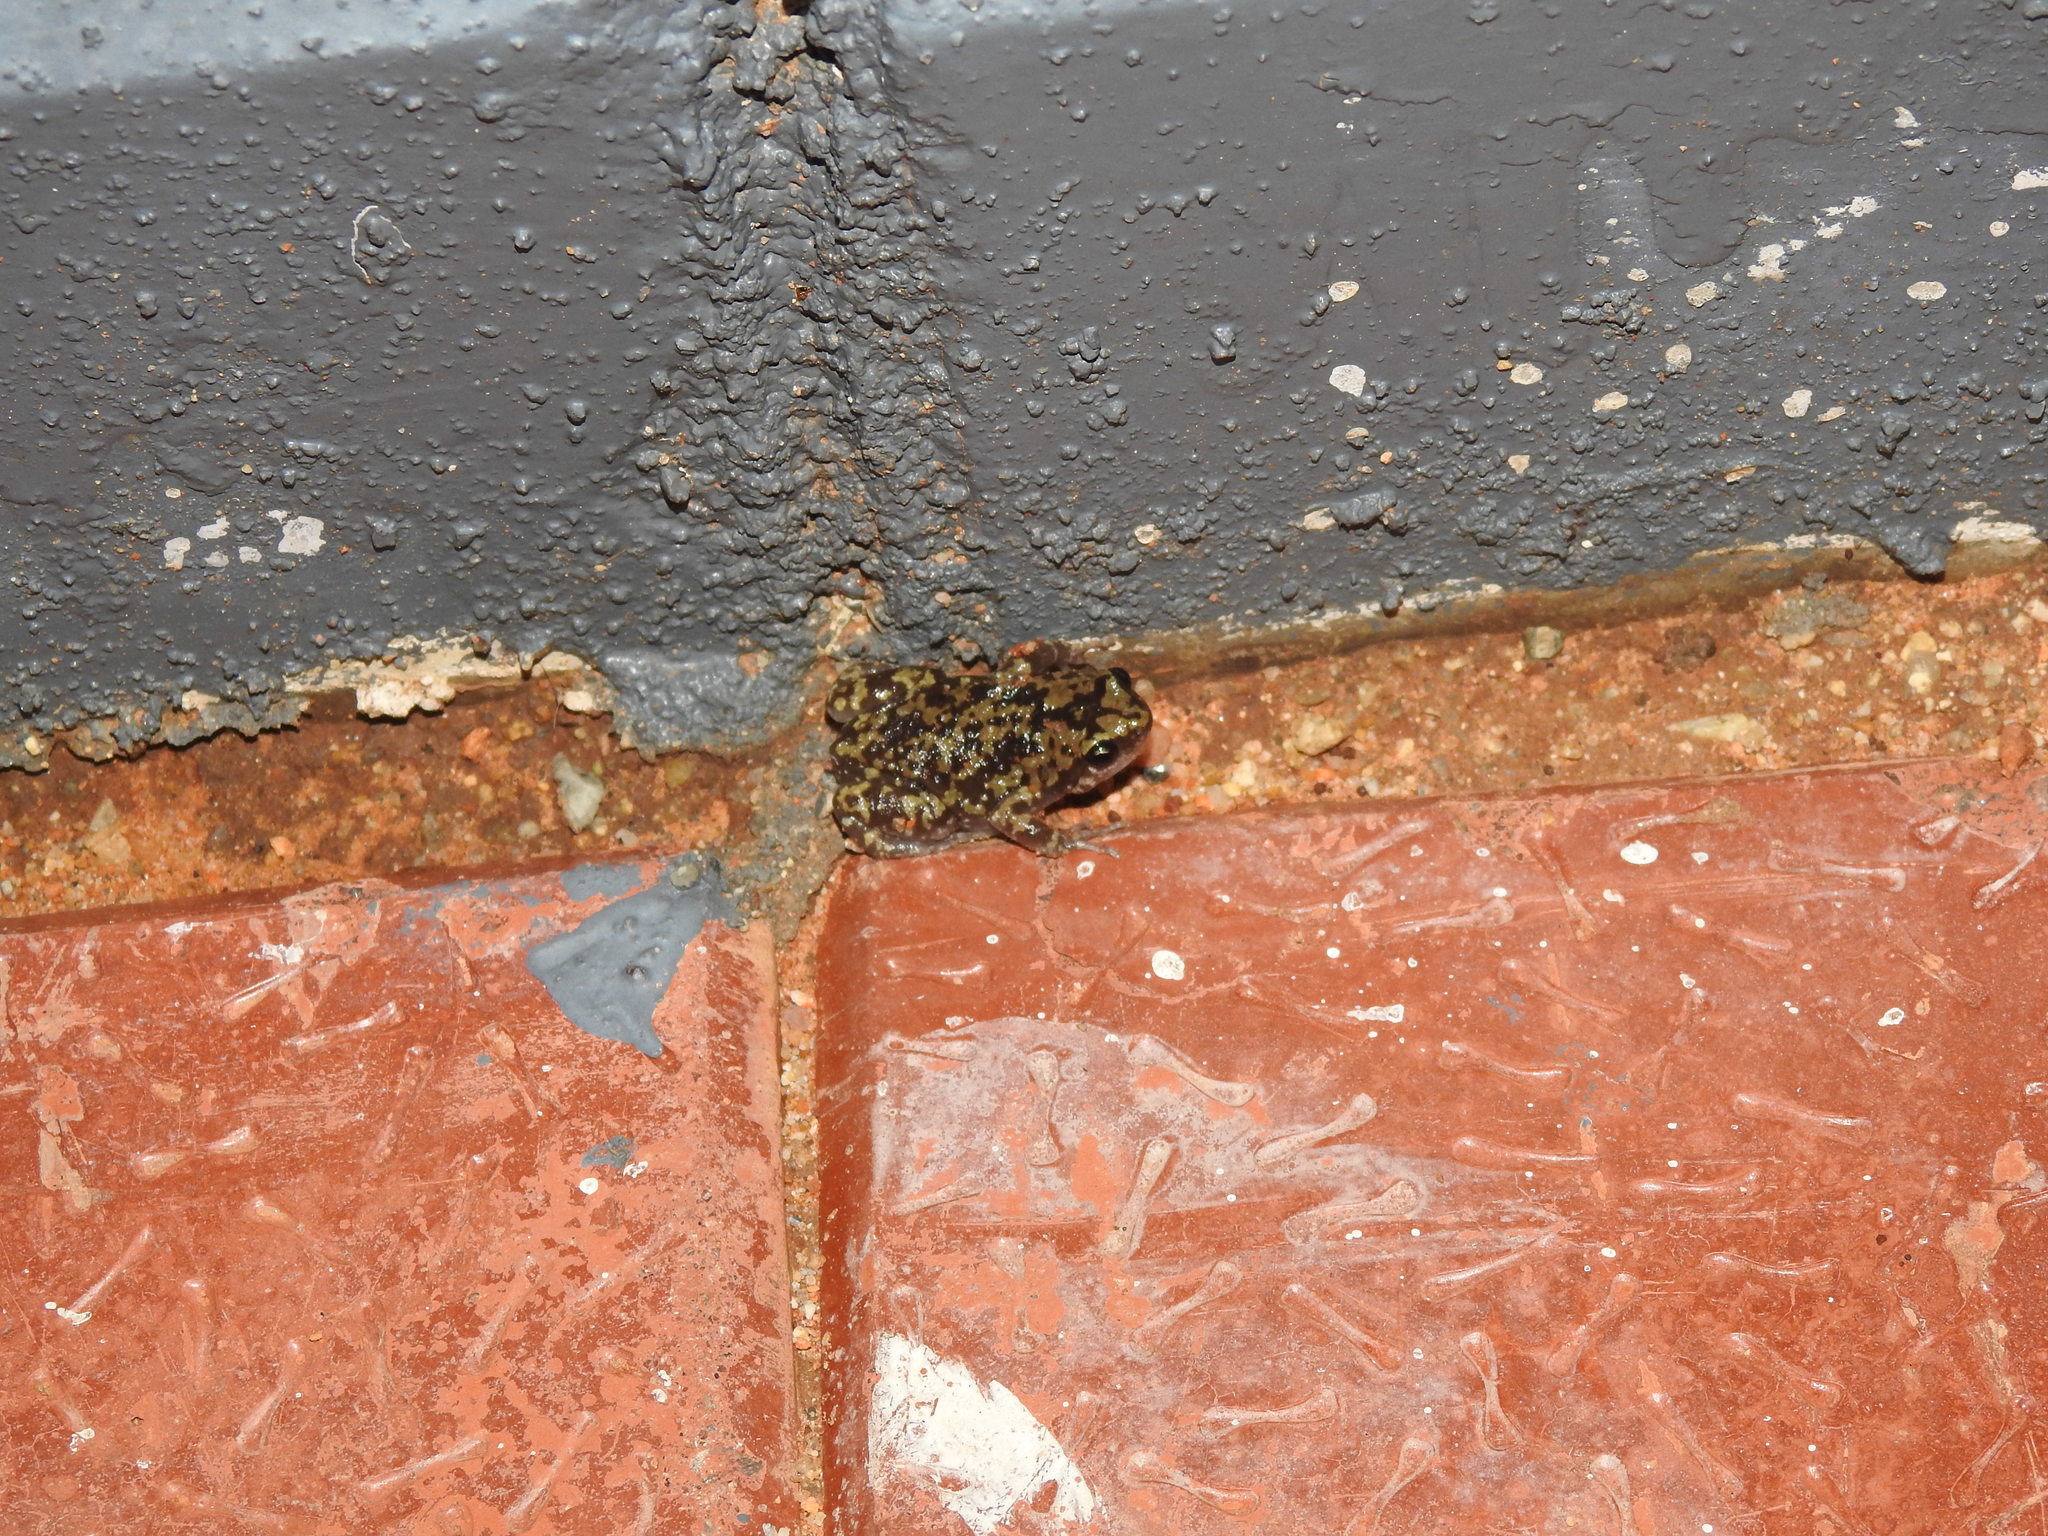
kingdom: Animalia
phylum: Chordata
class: Amphibia
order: Anura
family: Microhylidae
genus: Uperodon
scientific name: Uperodon variegatus
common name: Eluru dot frog
